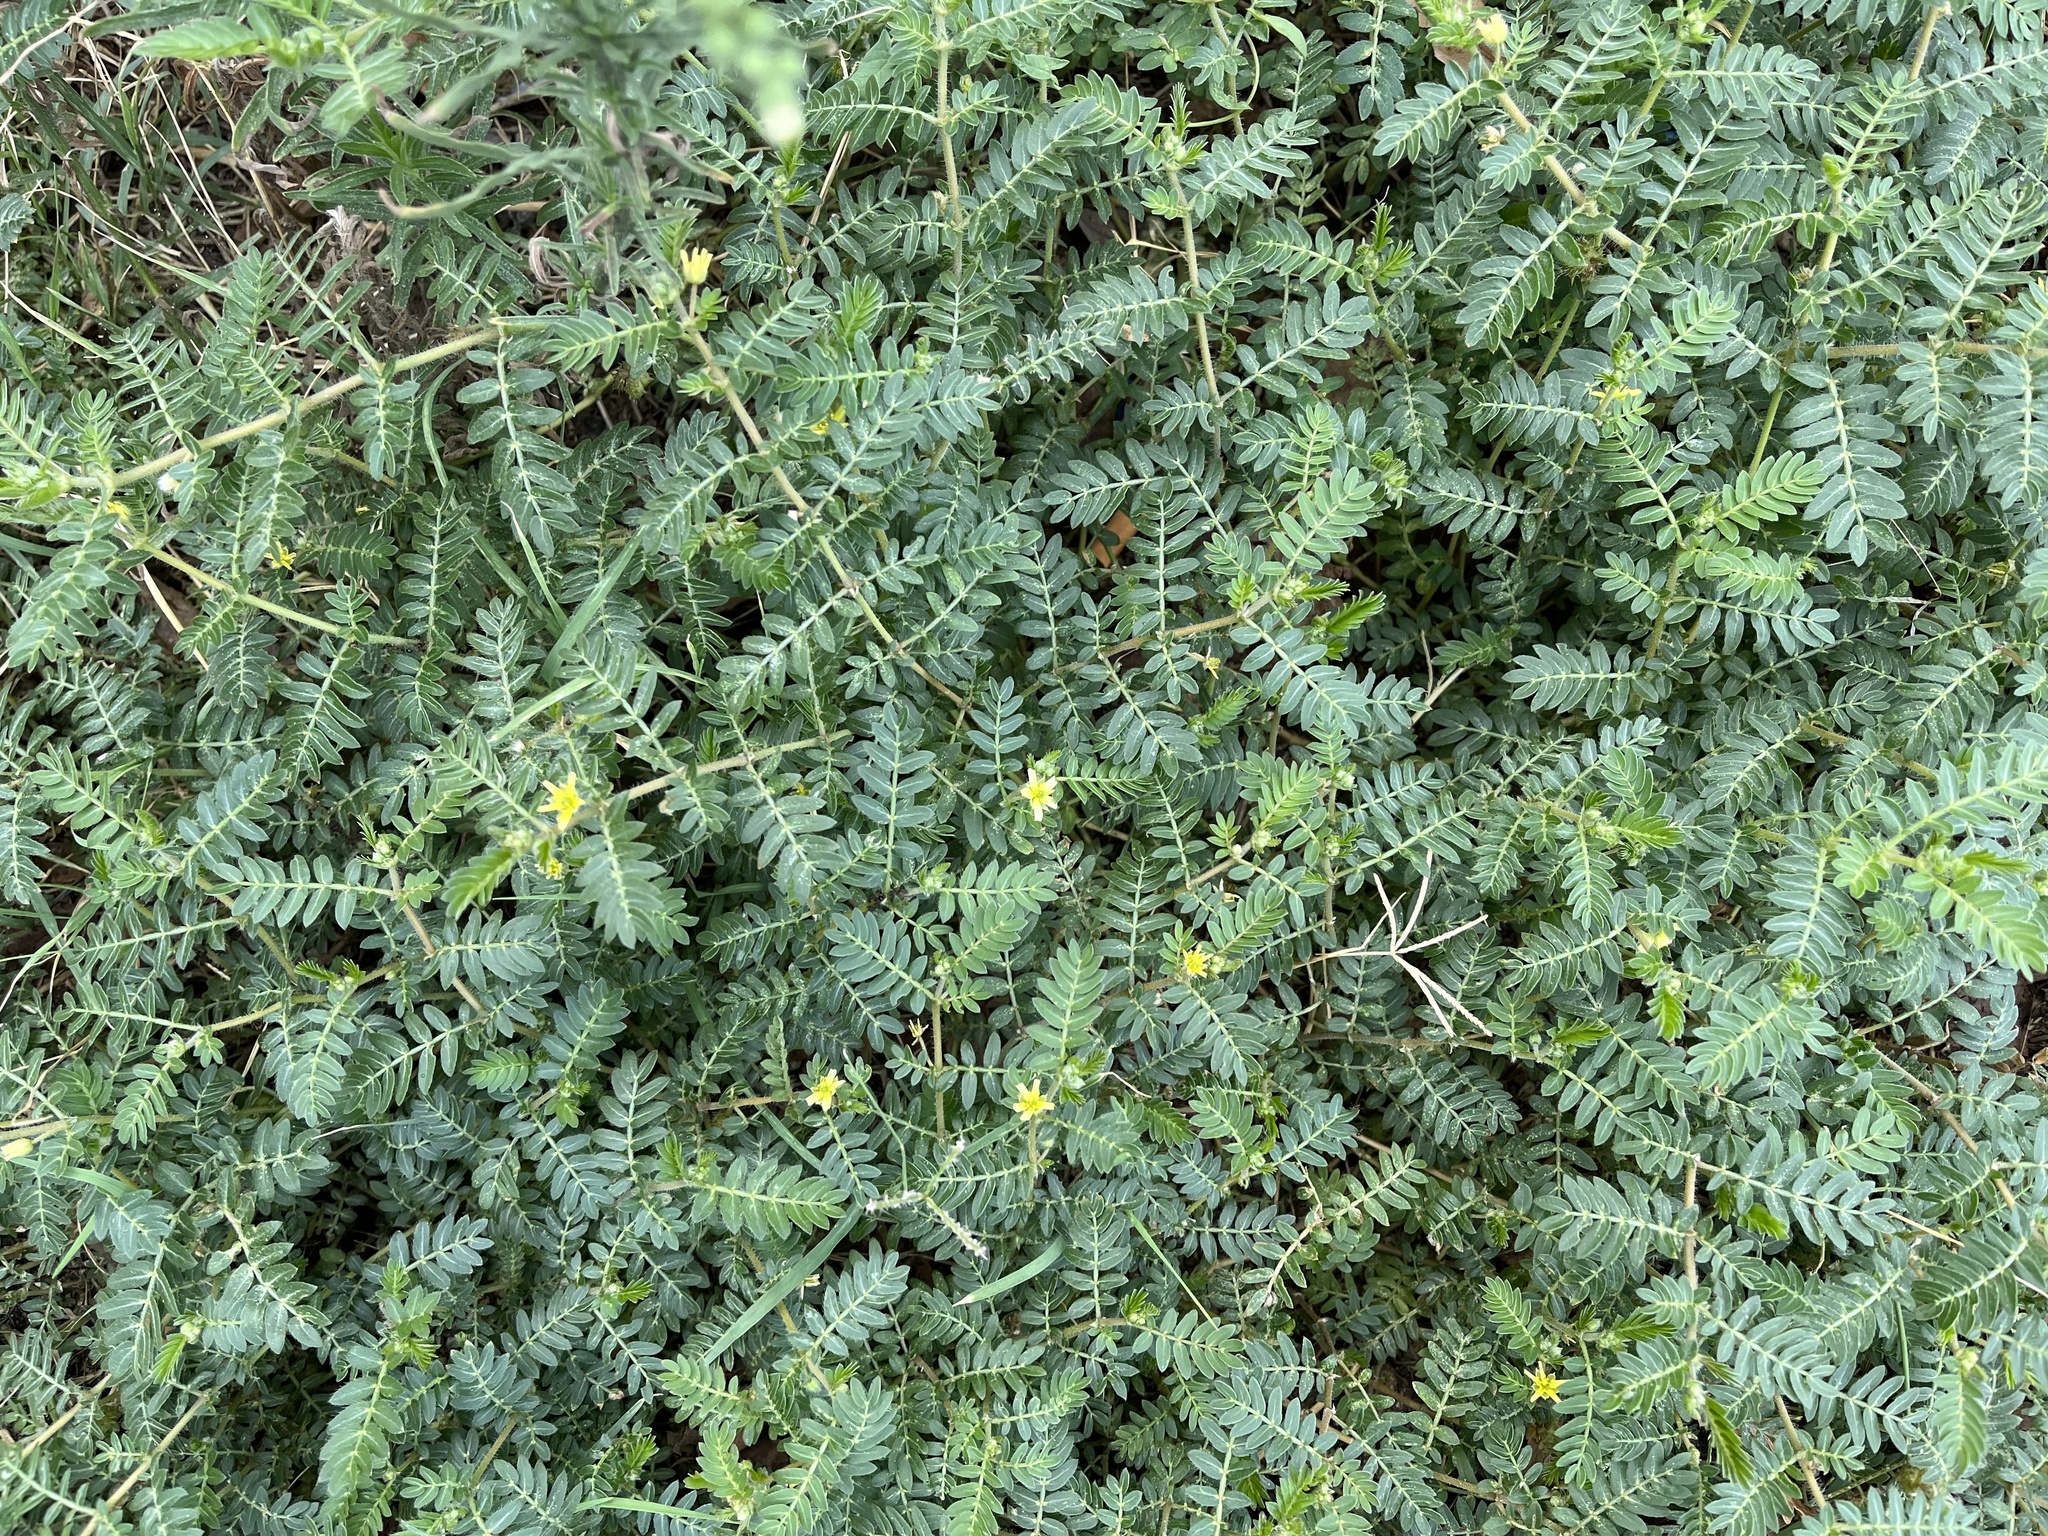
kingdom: Plantae
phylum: Tracheophyta
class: Magnoliopsida
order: Zygophyllales
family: Zygophyllaceae
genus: Tribulus
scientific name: Tribulus terrestris
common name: Puncturevine
